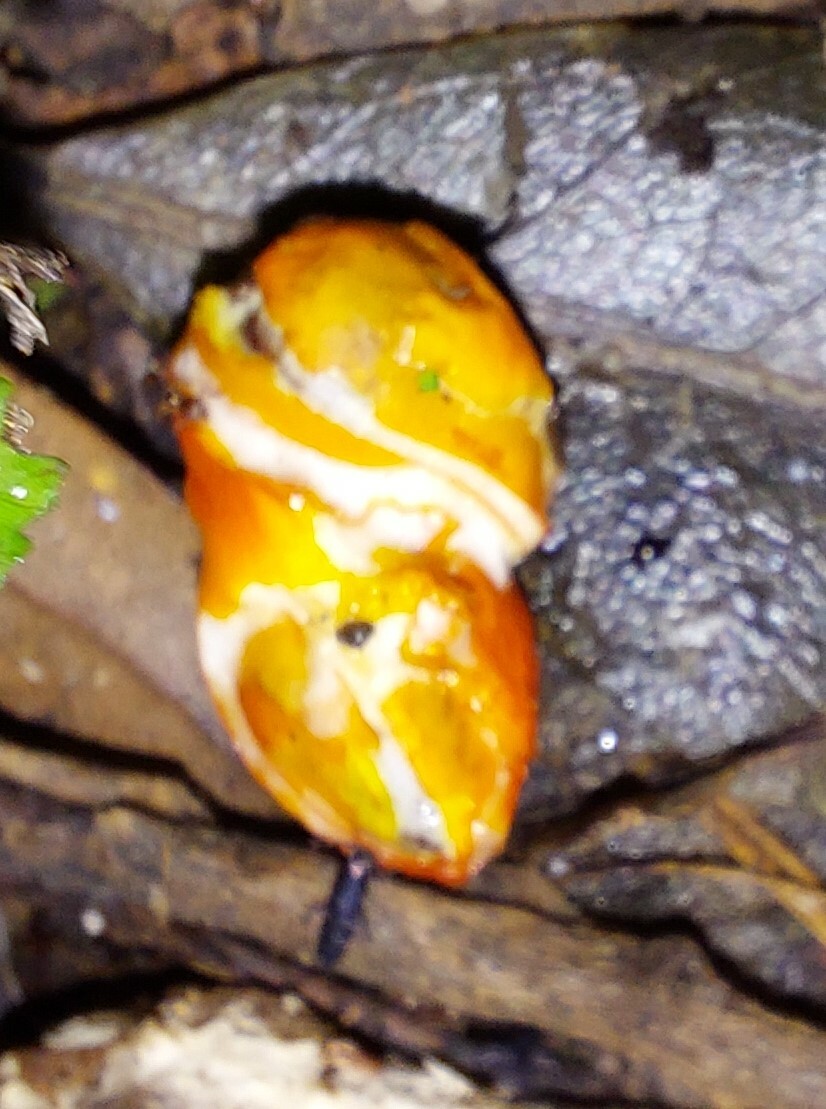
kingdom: Plantae
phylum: Tracheophyta
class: Magnoliopsida
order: Malpighiales
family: Passifloraceae
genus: Passiflora
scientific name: Passiflora tetrandra
